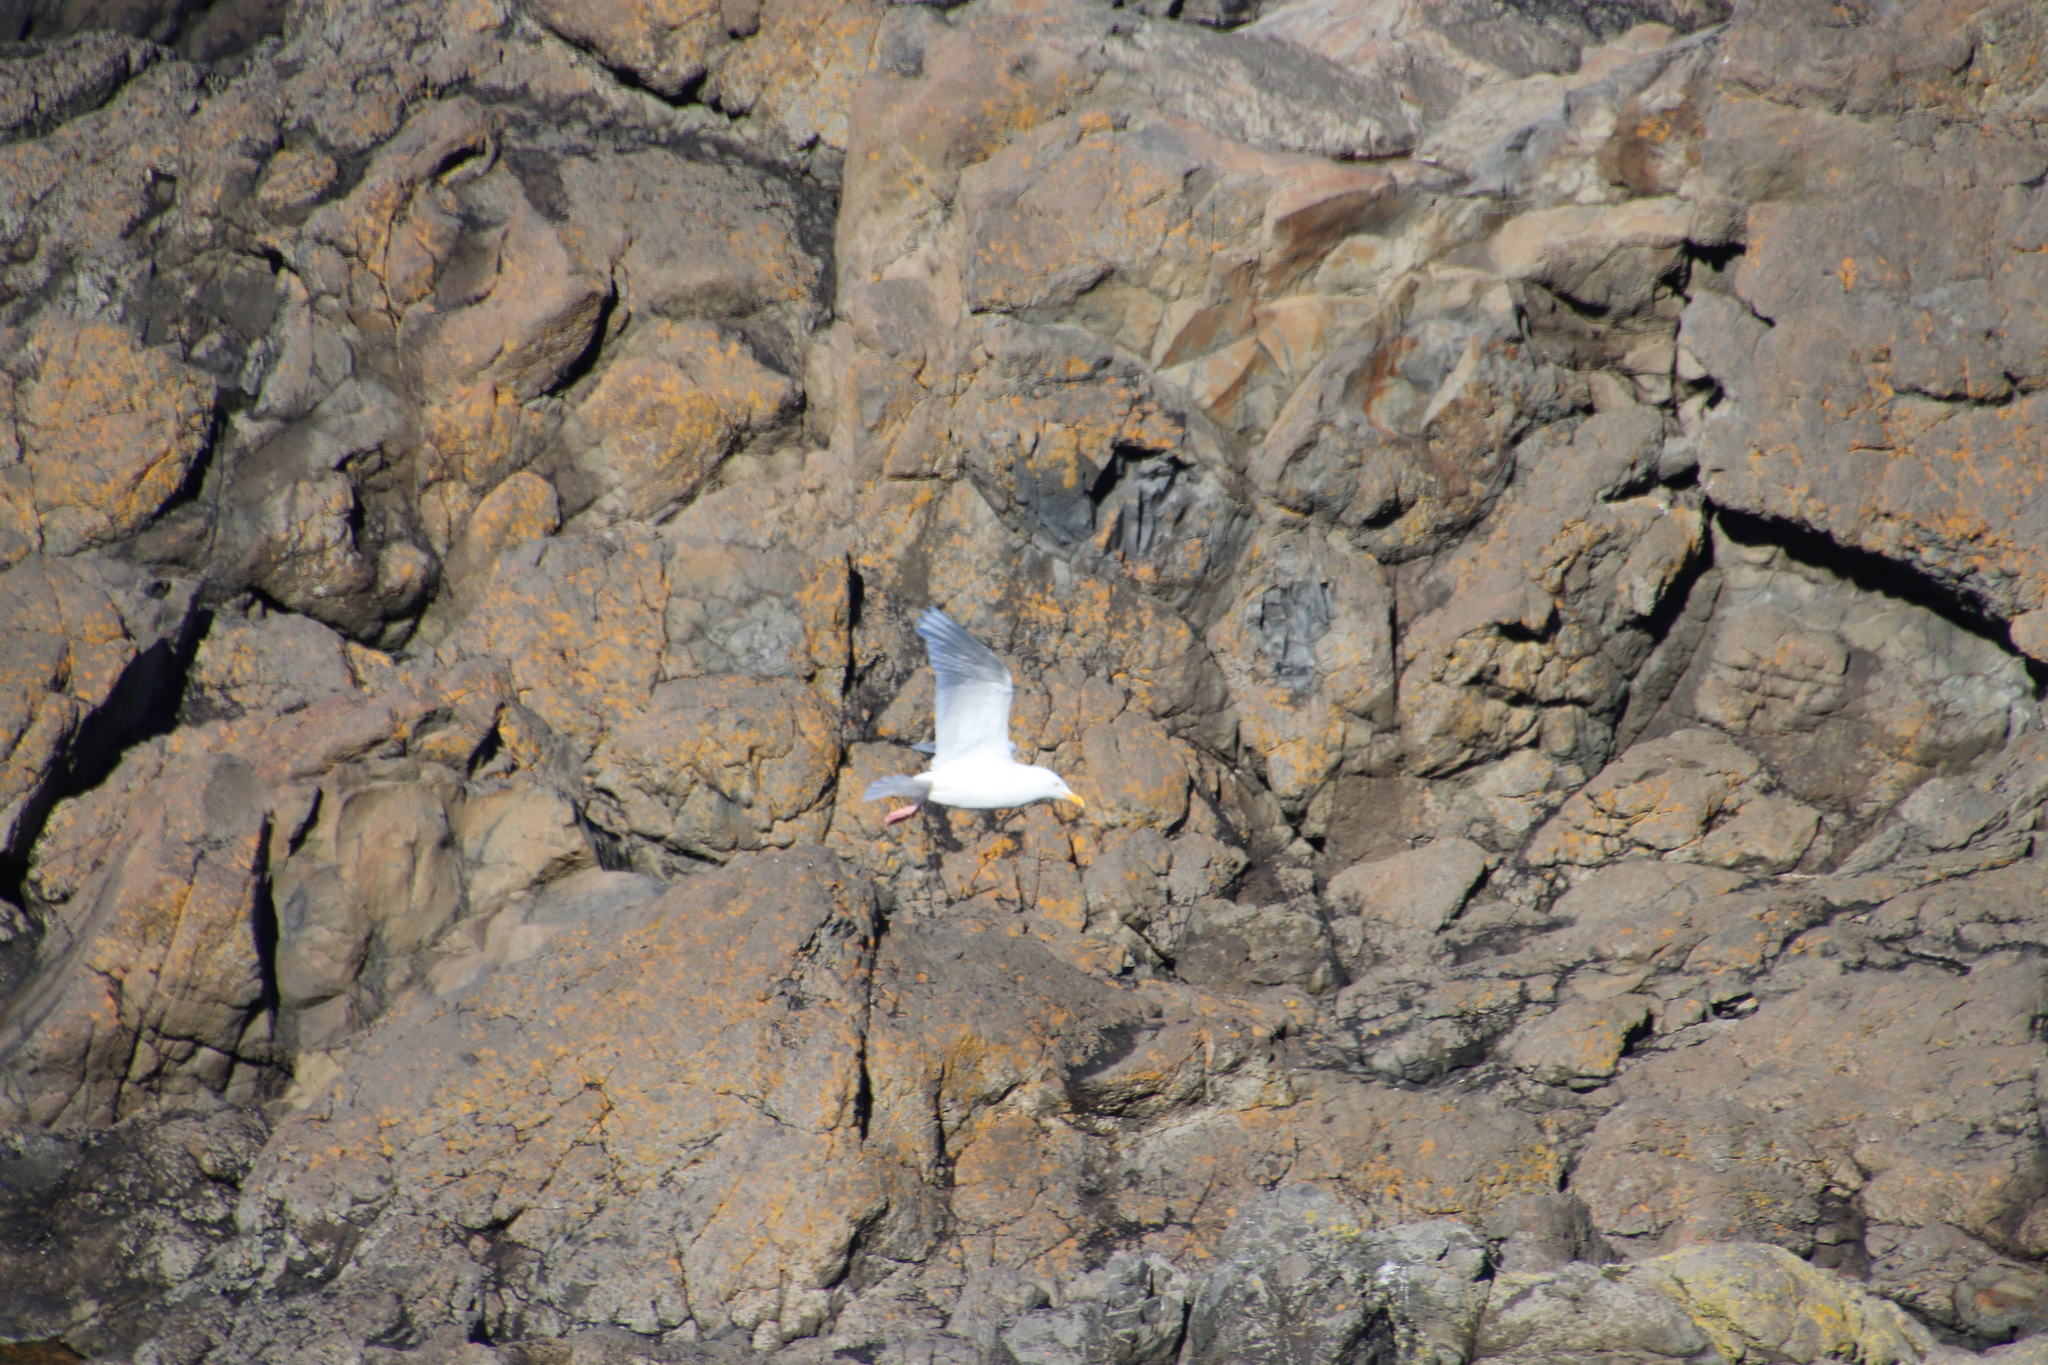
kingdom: Animalia
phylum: Chordata
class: Aves
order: Charadriiformes
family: Laridae
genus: Larus
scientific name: Larus hyperboreus
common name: Glaucous gull
